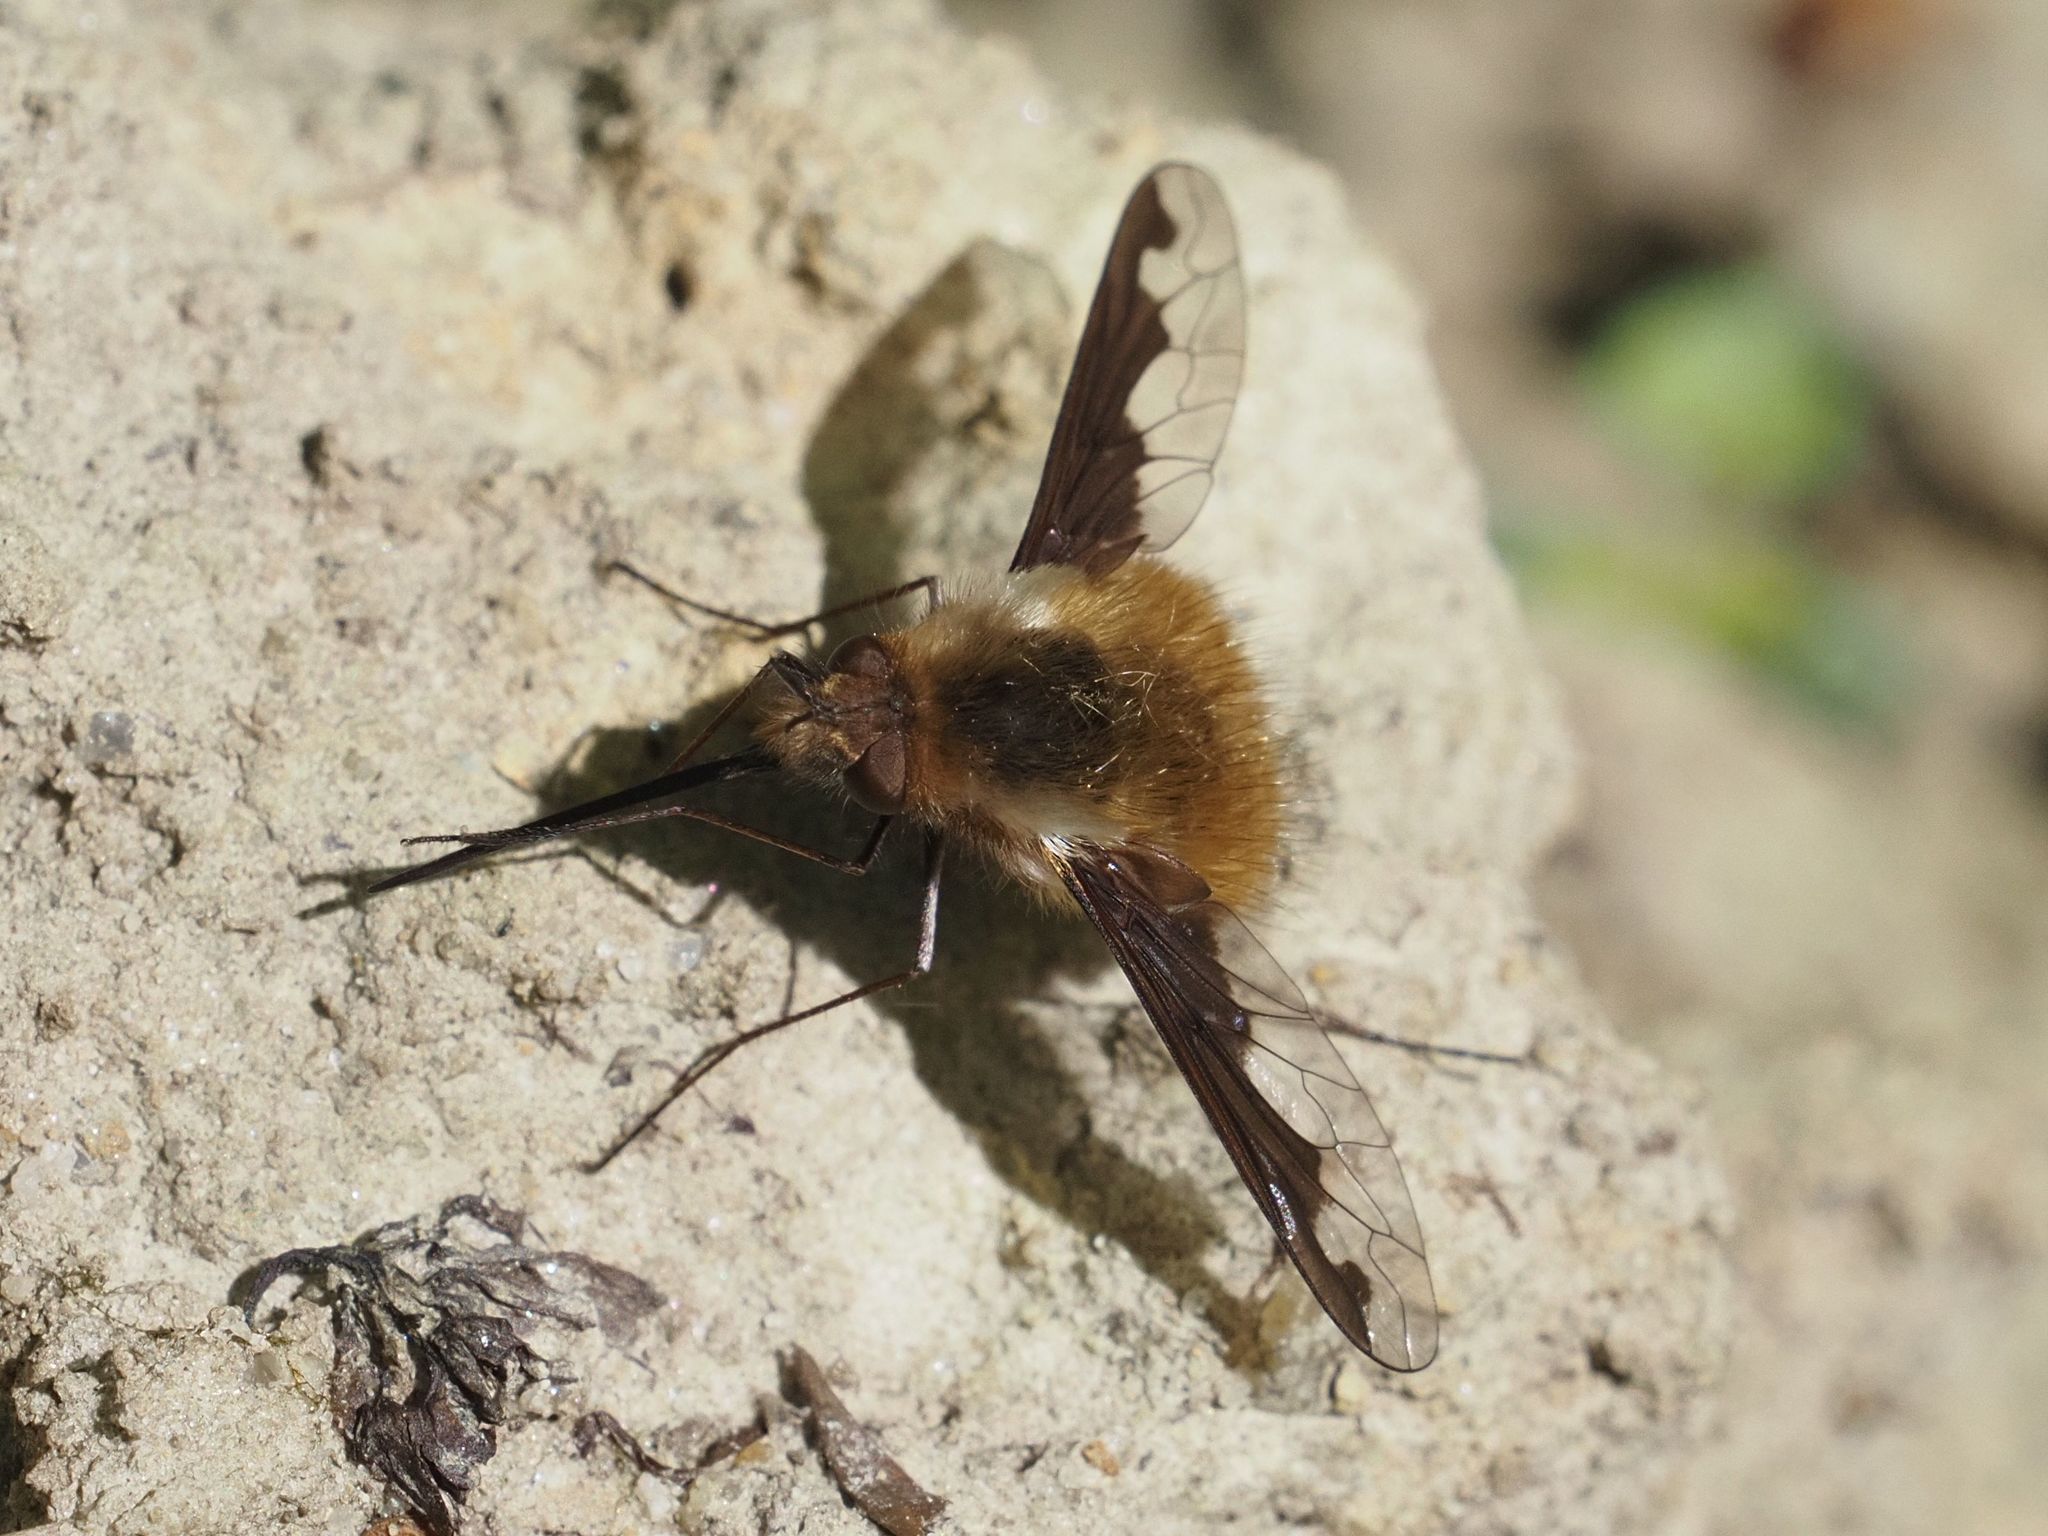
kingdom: Animalia
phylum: Arthropoda
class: Insecta
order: Diptera
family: Bombyliidae
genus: Bombylius
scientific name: Bombylius major
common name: Bee fly
